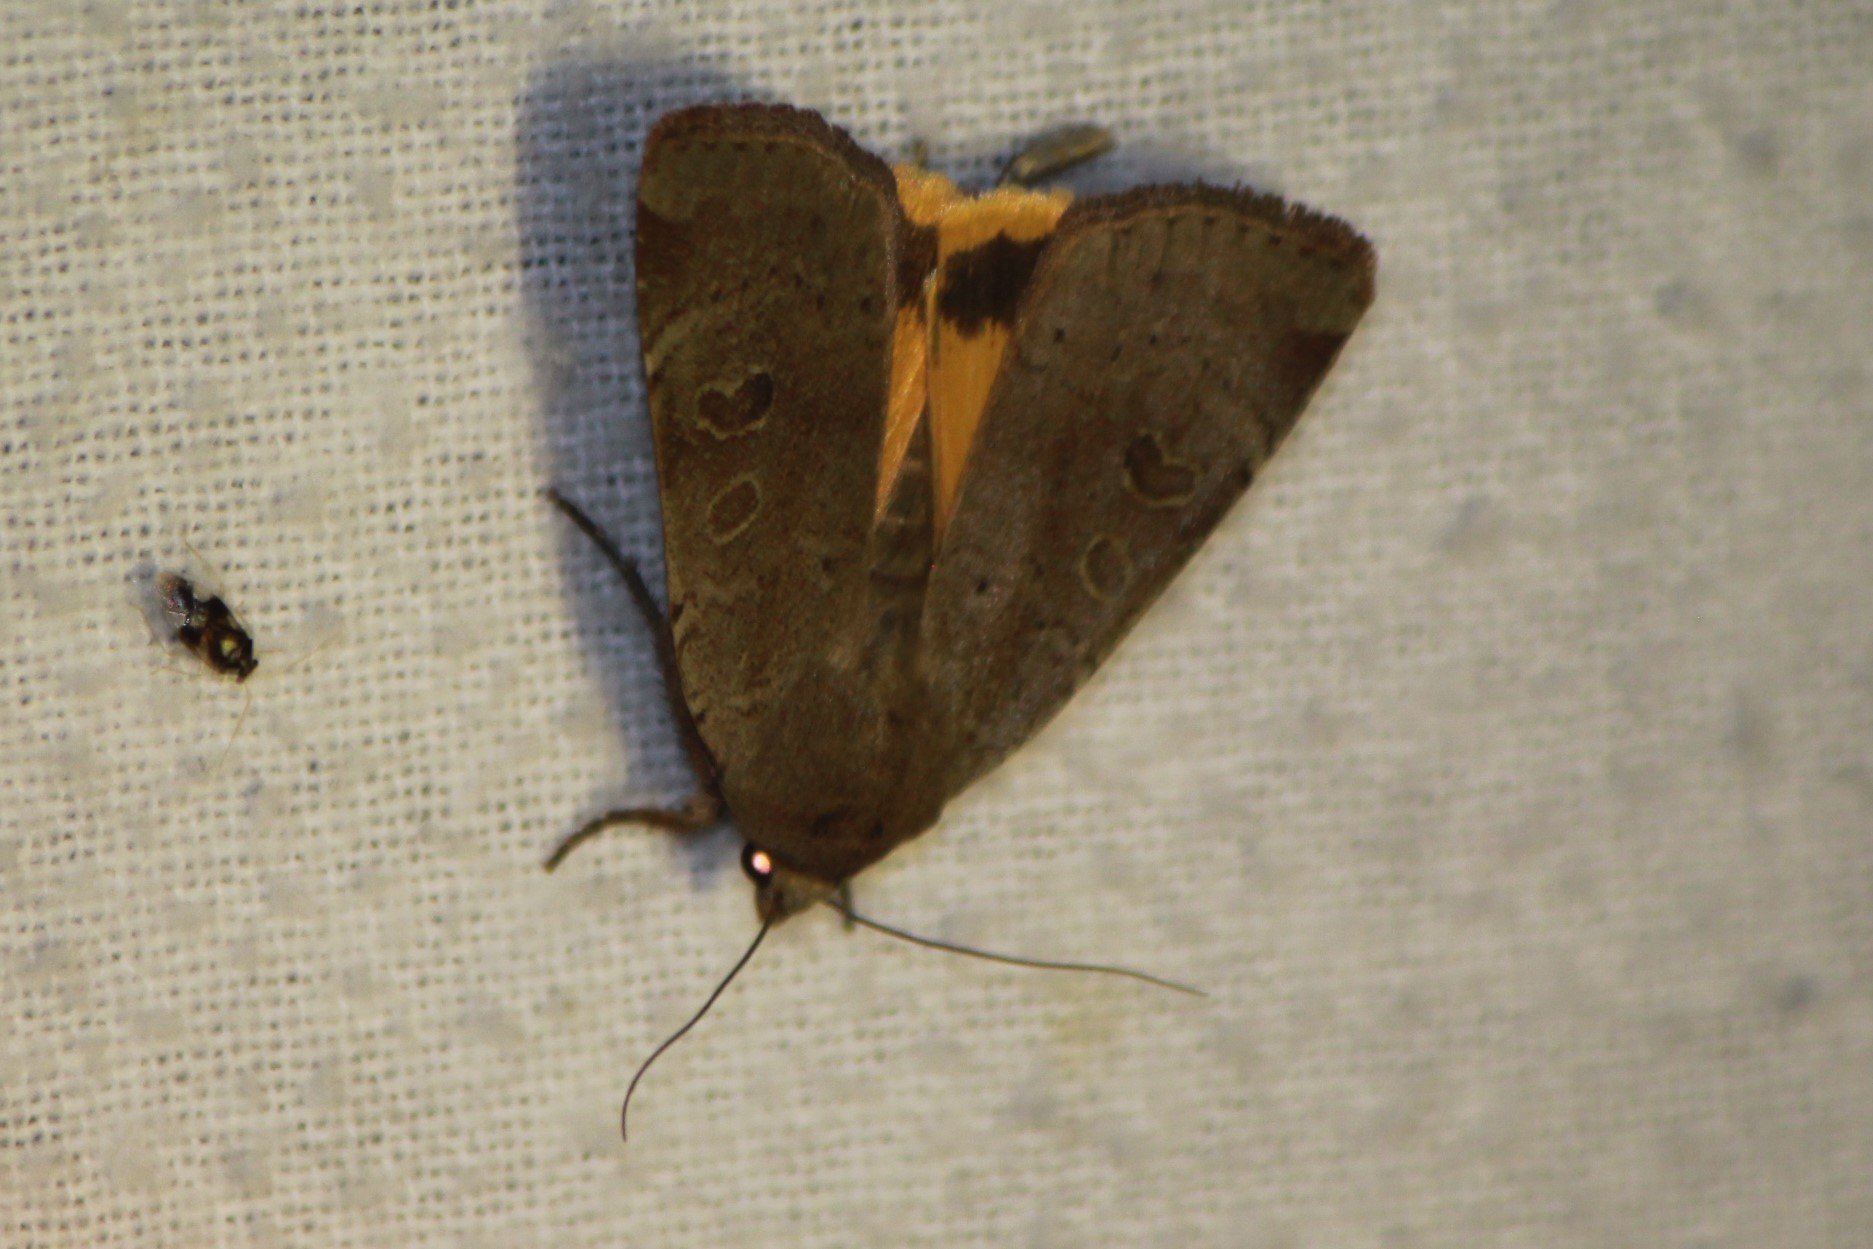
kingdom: Animalia
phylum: Arthropoda
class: Insecta
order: Lepidoptera
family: Noctuidae
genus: Noctua
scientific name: Noctua comes
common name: Lesser yellow underwing
